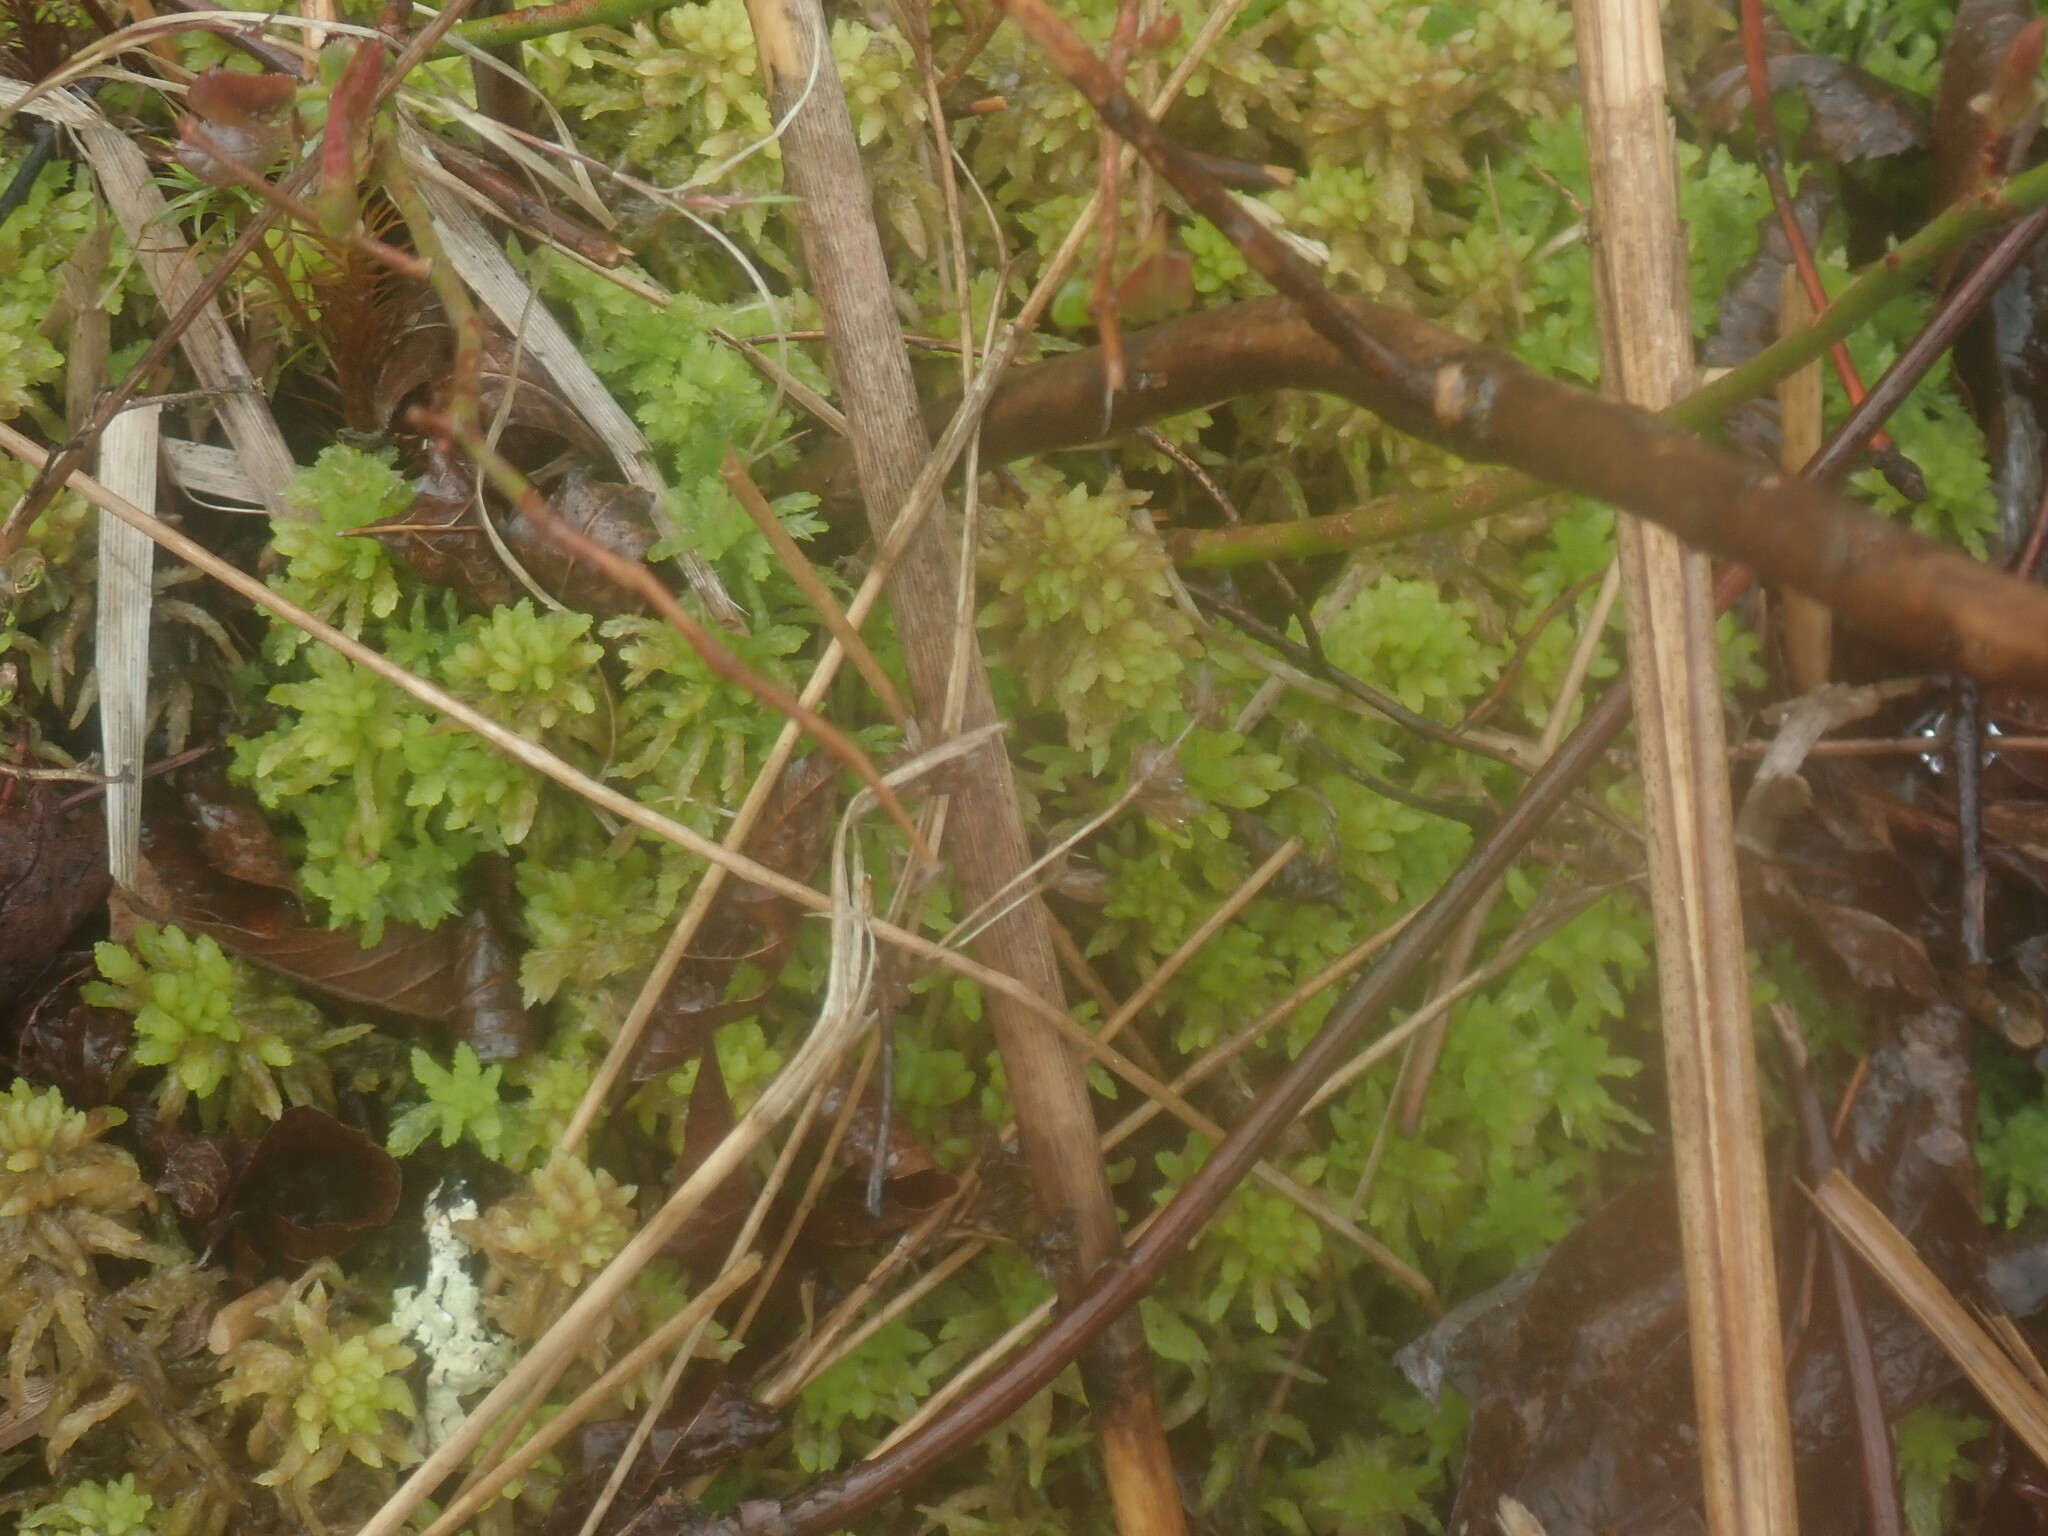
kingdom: Plantae
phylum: Bryophyta
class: Sphagnopsida
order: Sphagnales
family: Sphagnaceae
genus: Sphagnum
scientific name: Sphagnum
